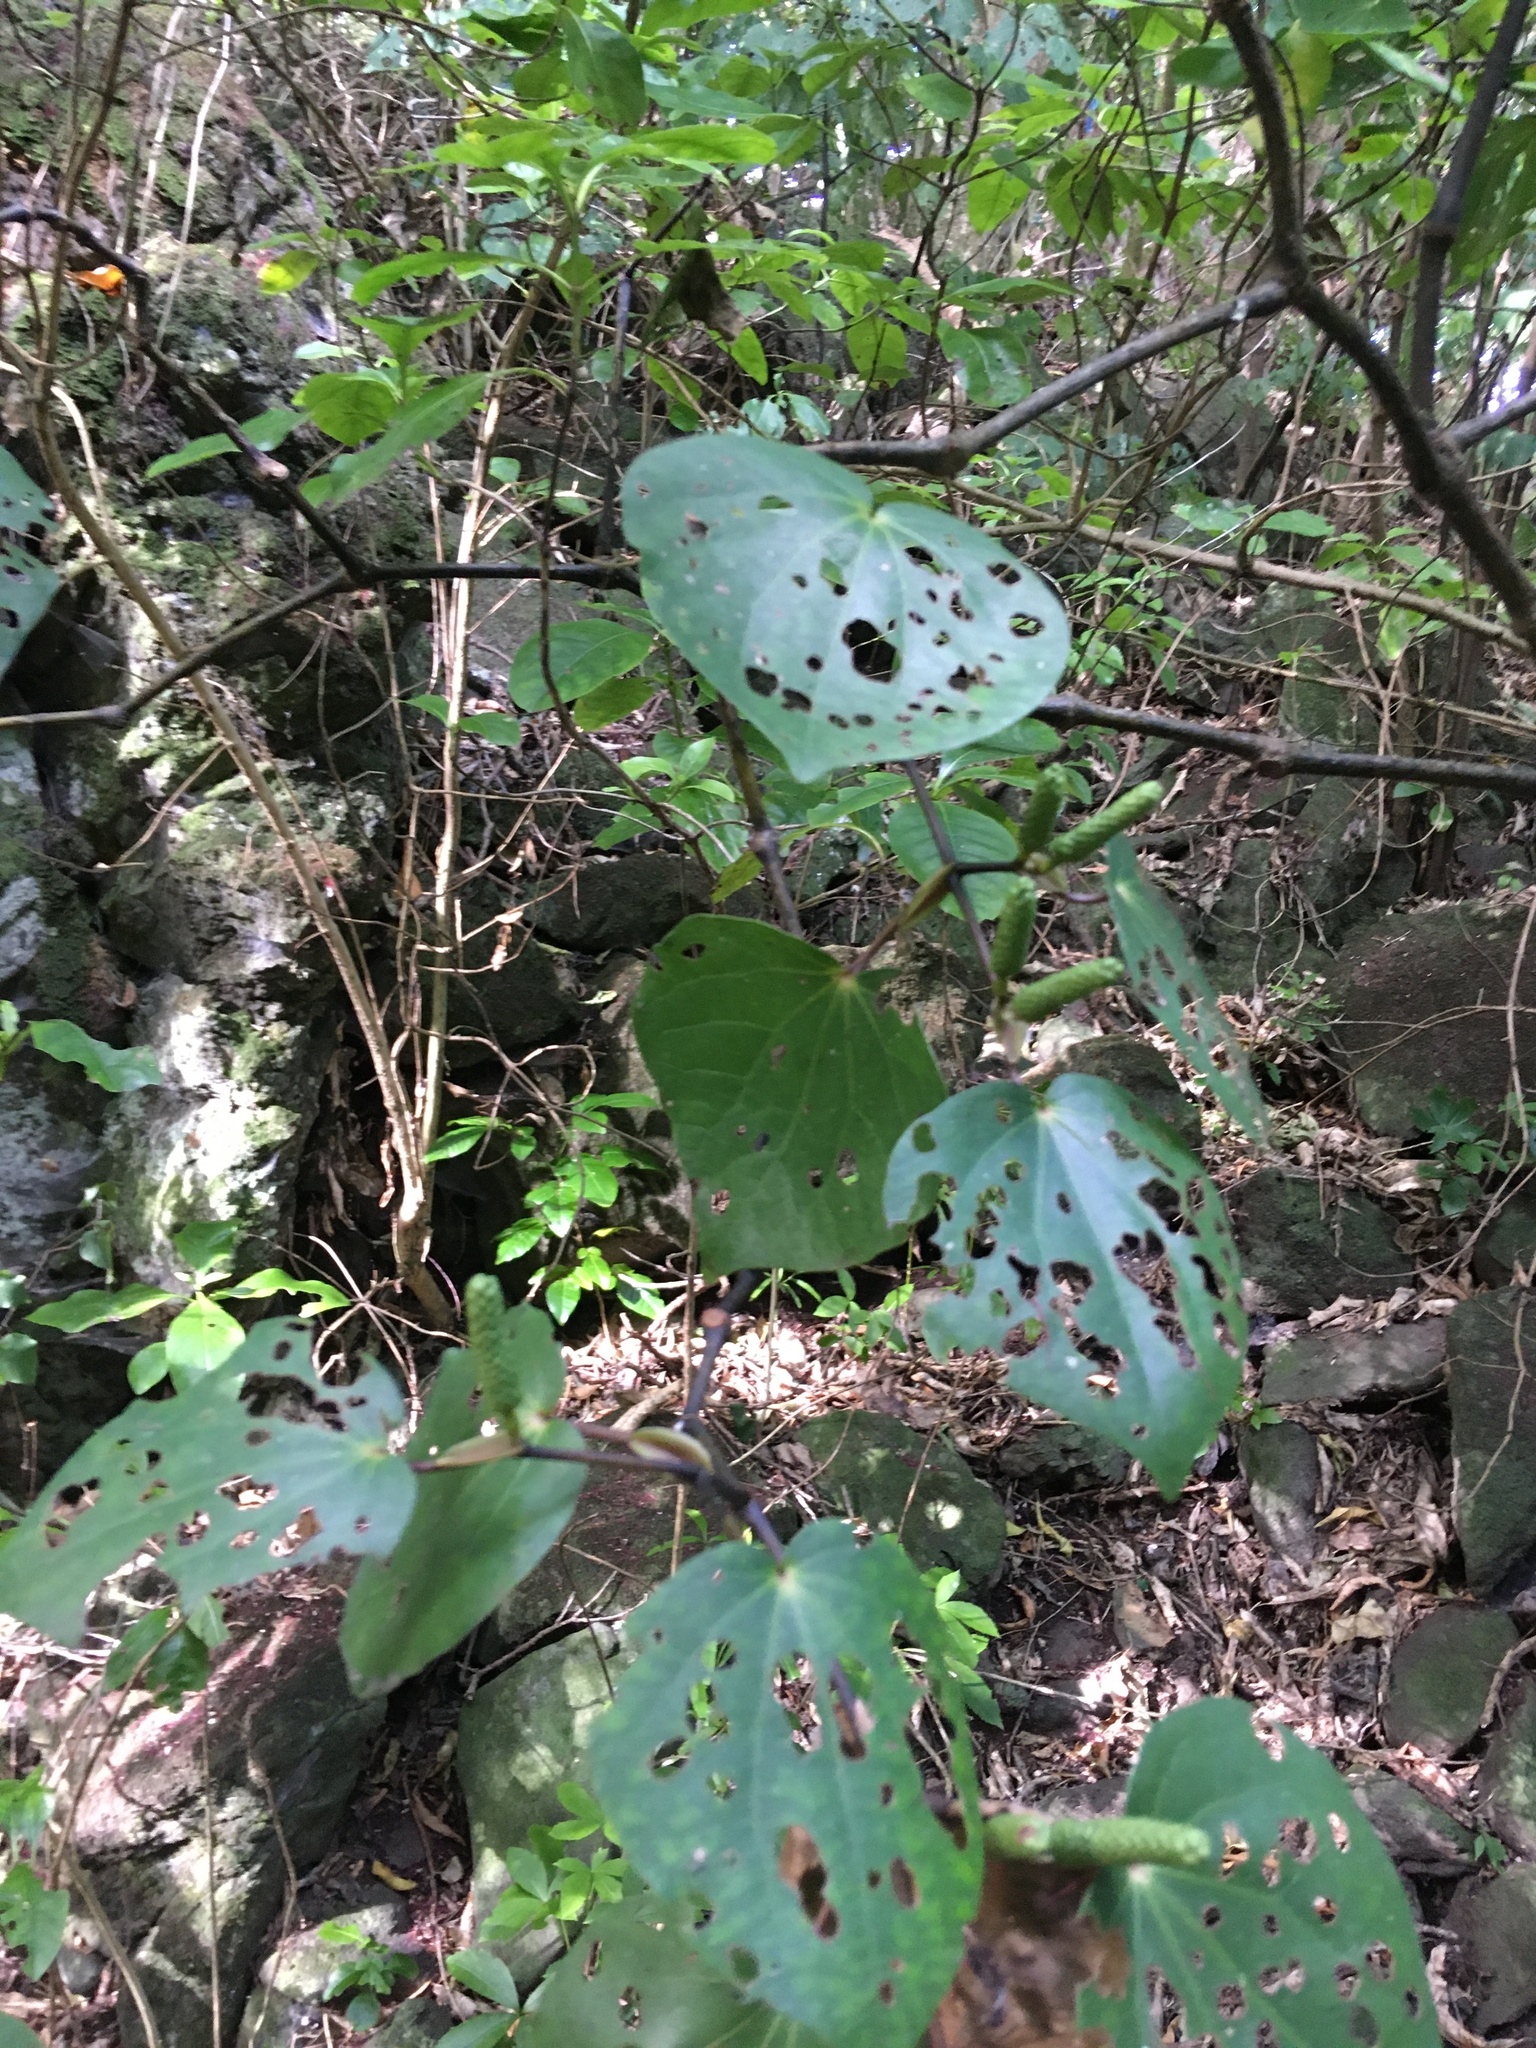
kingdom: Plantae
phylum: Tracheophyta
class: Magnoliopsida
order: Piperales
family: Piperaceae
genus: Macropiper
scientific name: Macropiper excelsum
